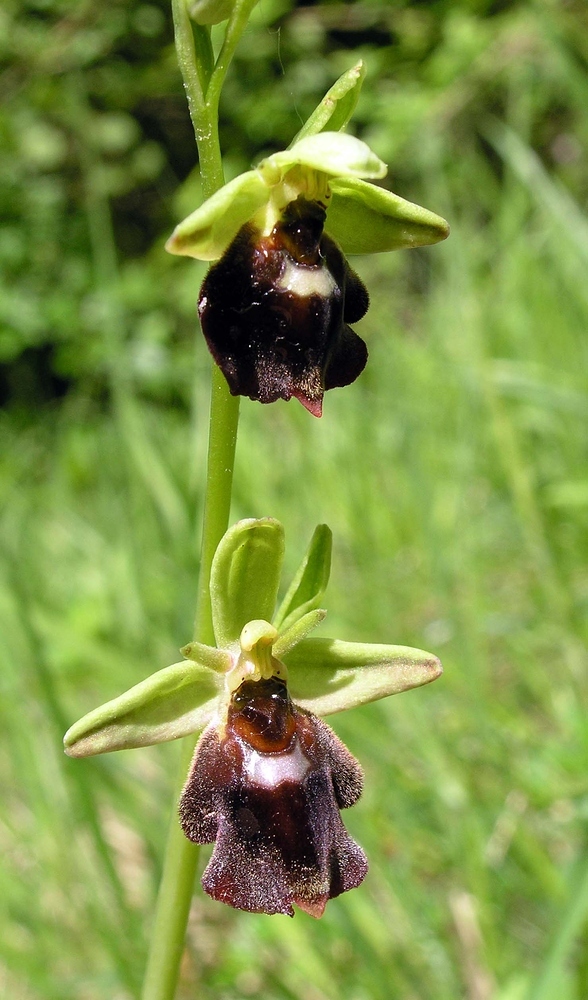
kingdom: Plantae
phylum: Tracheophyta
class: Liliopsida
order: Asparagales
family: Orchidaceae
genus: Ophrys
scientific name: Ophrys devenensis
